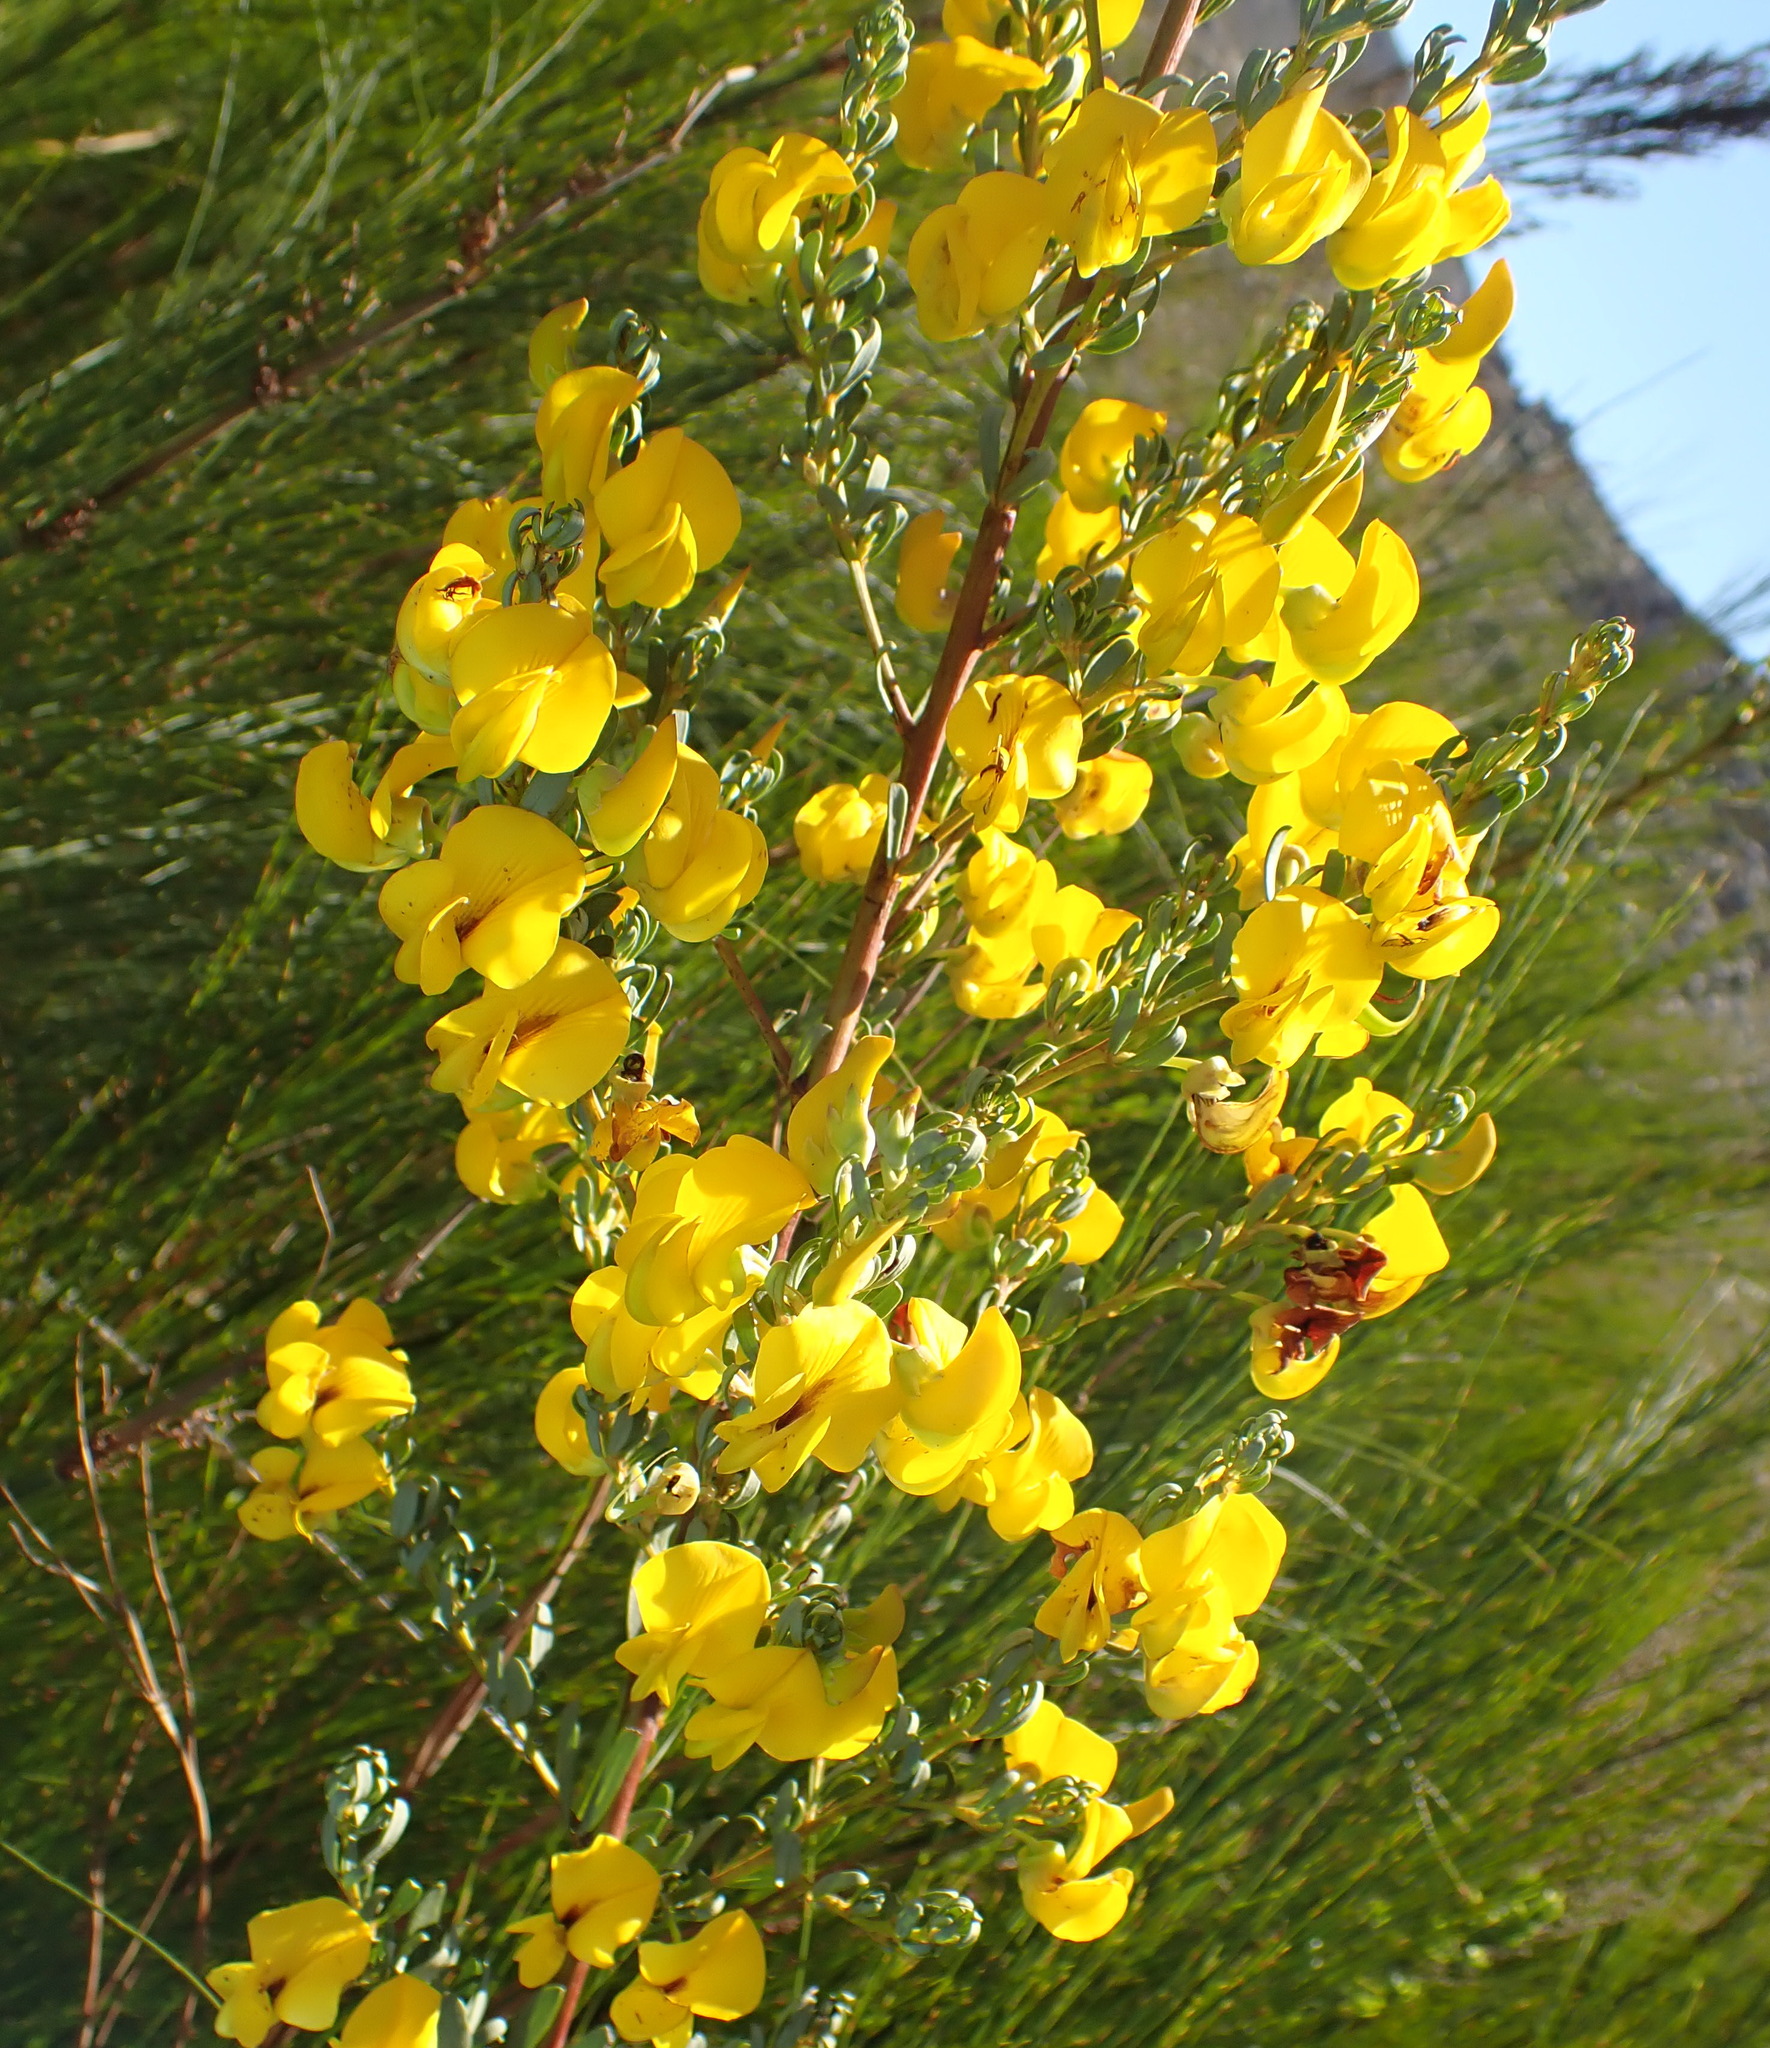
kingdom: Plantae
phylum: Tracheophyta
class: Magnoliopsida
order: Fabales
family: Fabaceae
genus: Cyclopia
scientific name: Cyclopia subternata
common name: Honeybush tea
